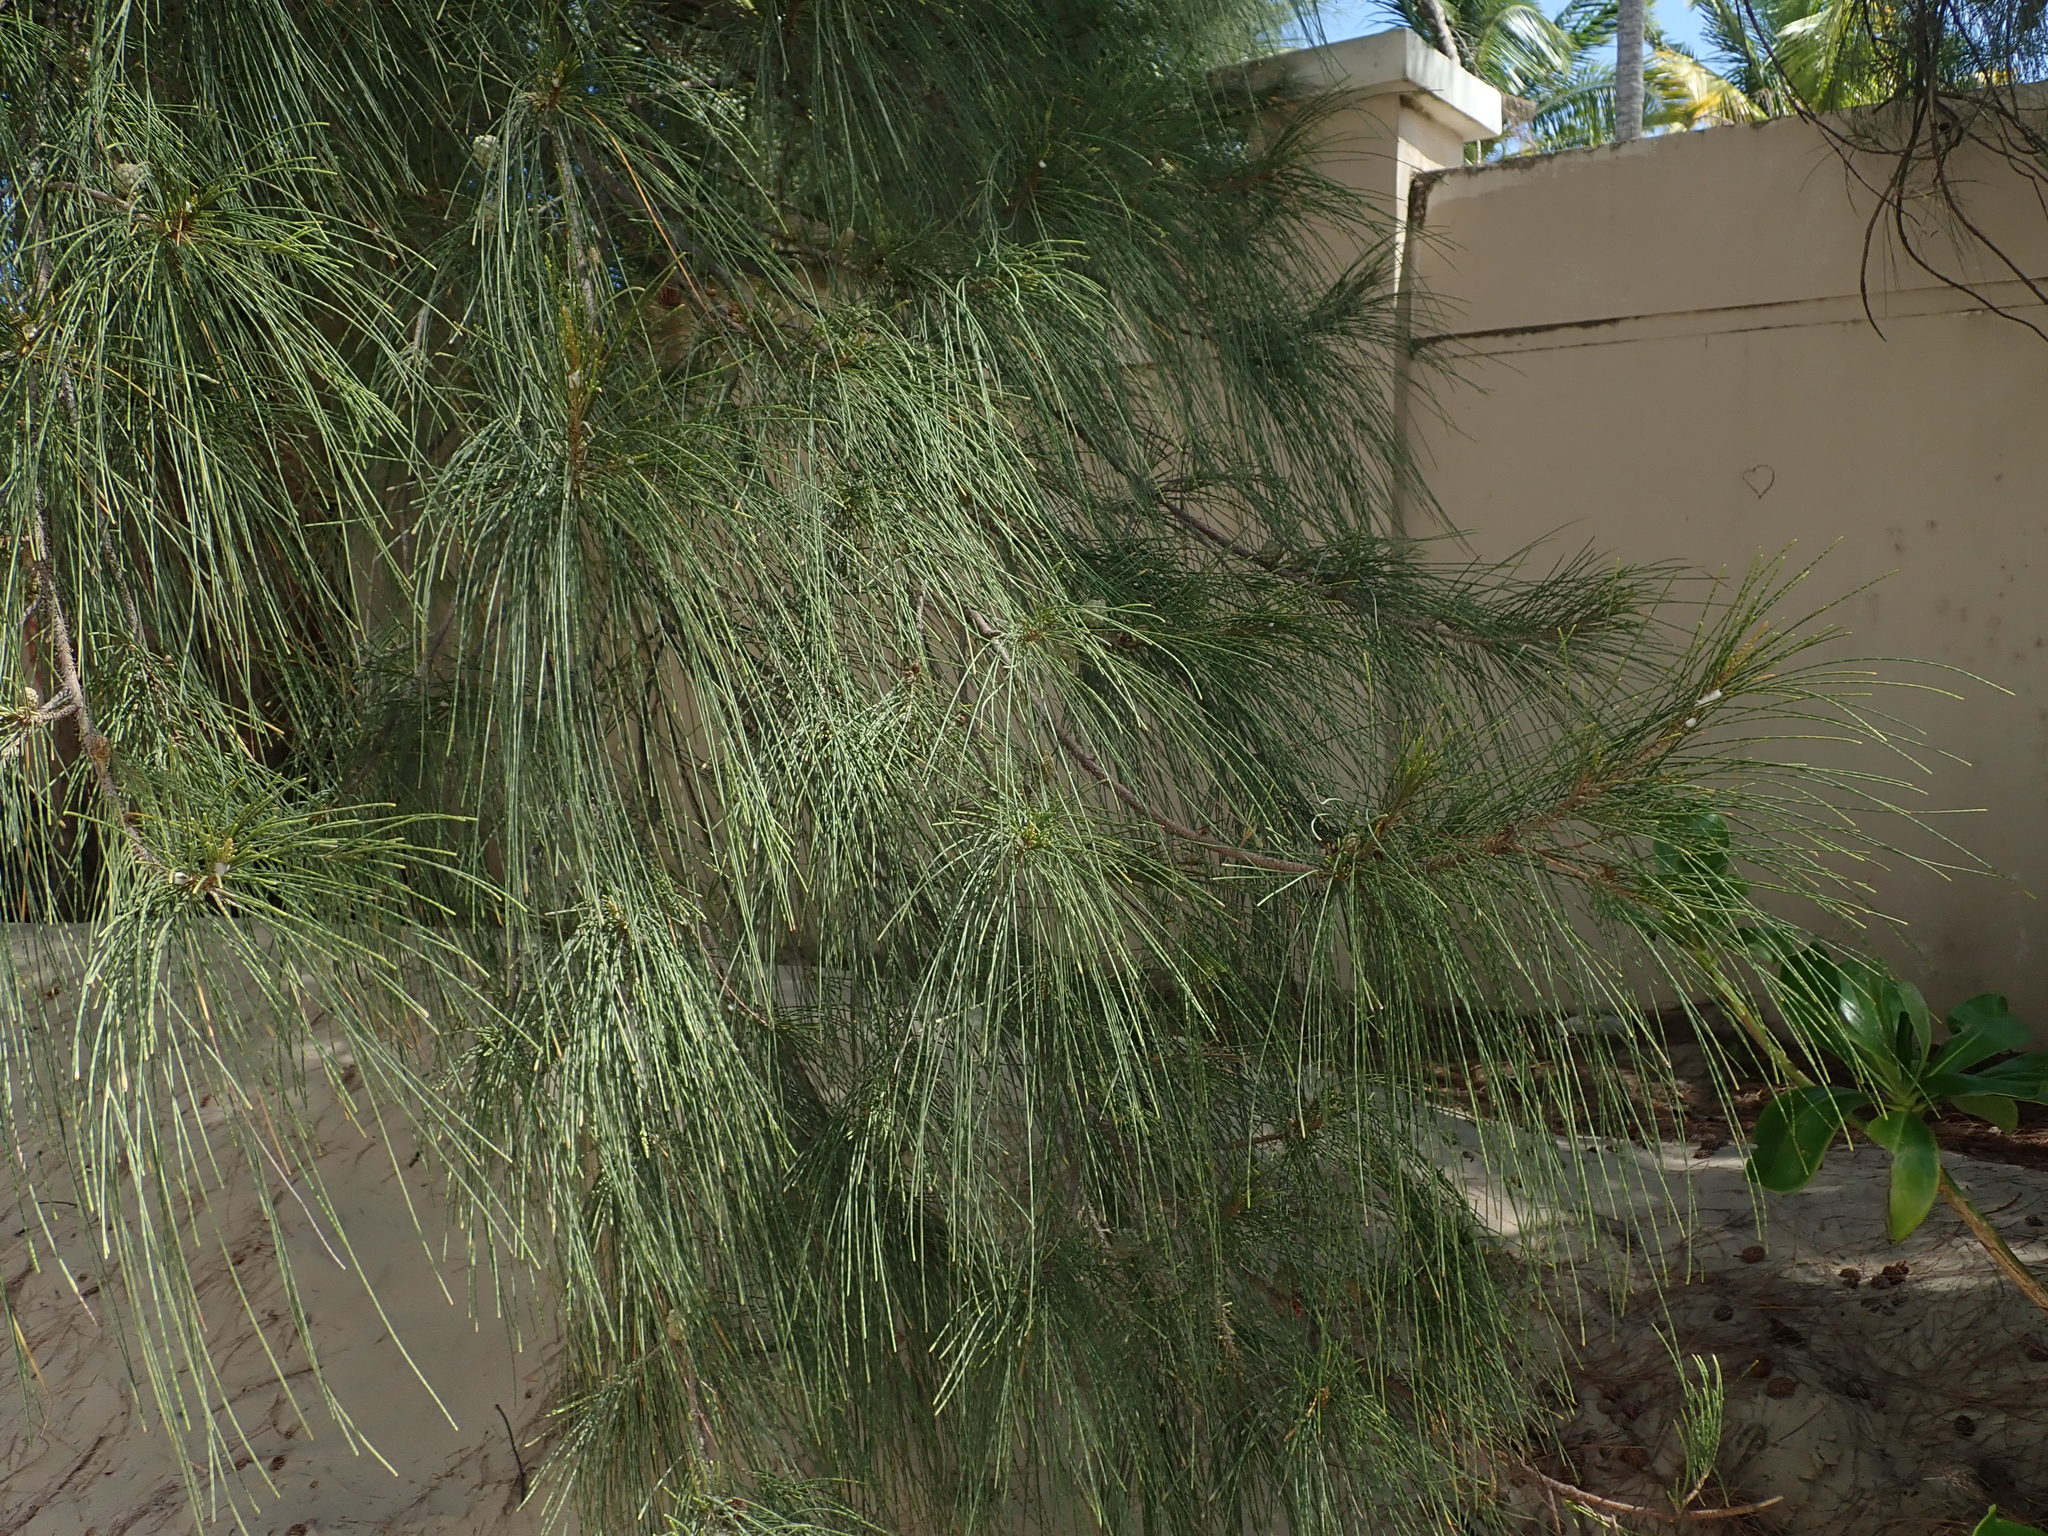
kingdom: Plantae
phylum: Tracheophyta
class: Magnoliopsida
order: Fagales
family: Casuarinaceae
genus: Casuarina
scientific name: Casuarina equisetifolia
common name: Beach sheoak
